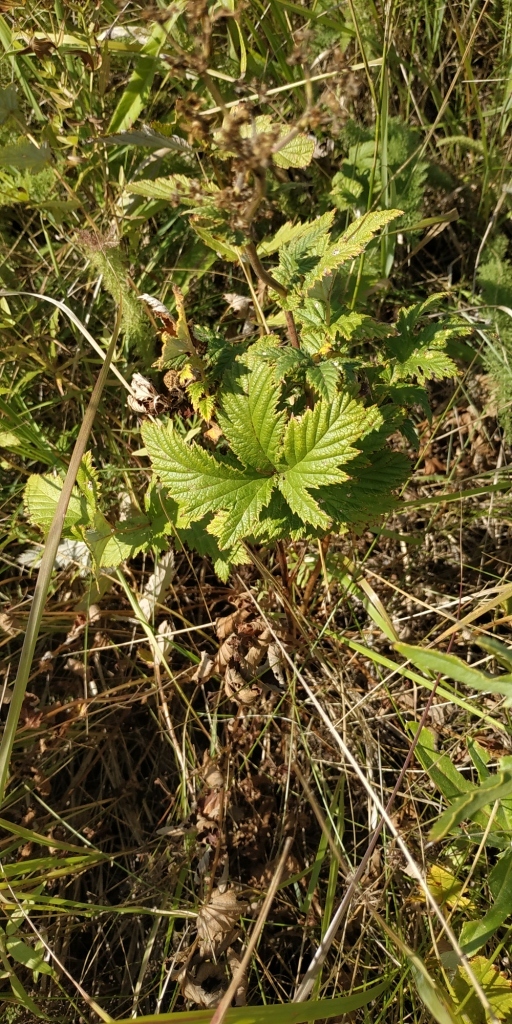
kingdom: Plantae
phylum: Tracheophyta
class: Magnoliopsida
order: Rosales
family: Rosaceae
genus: Filipendula
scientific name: Filipendula ulmaria
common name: Meadowsweet
